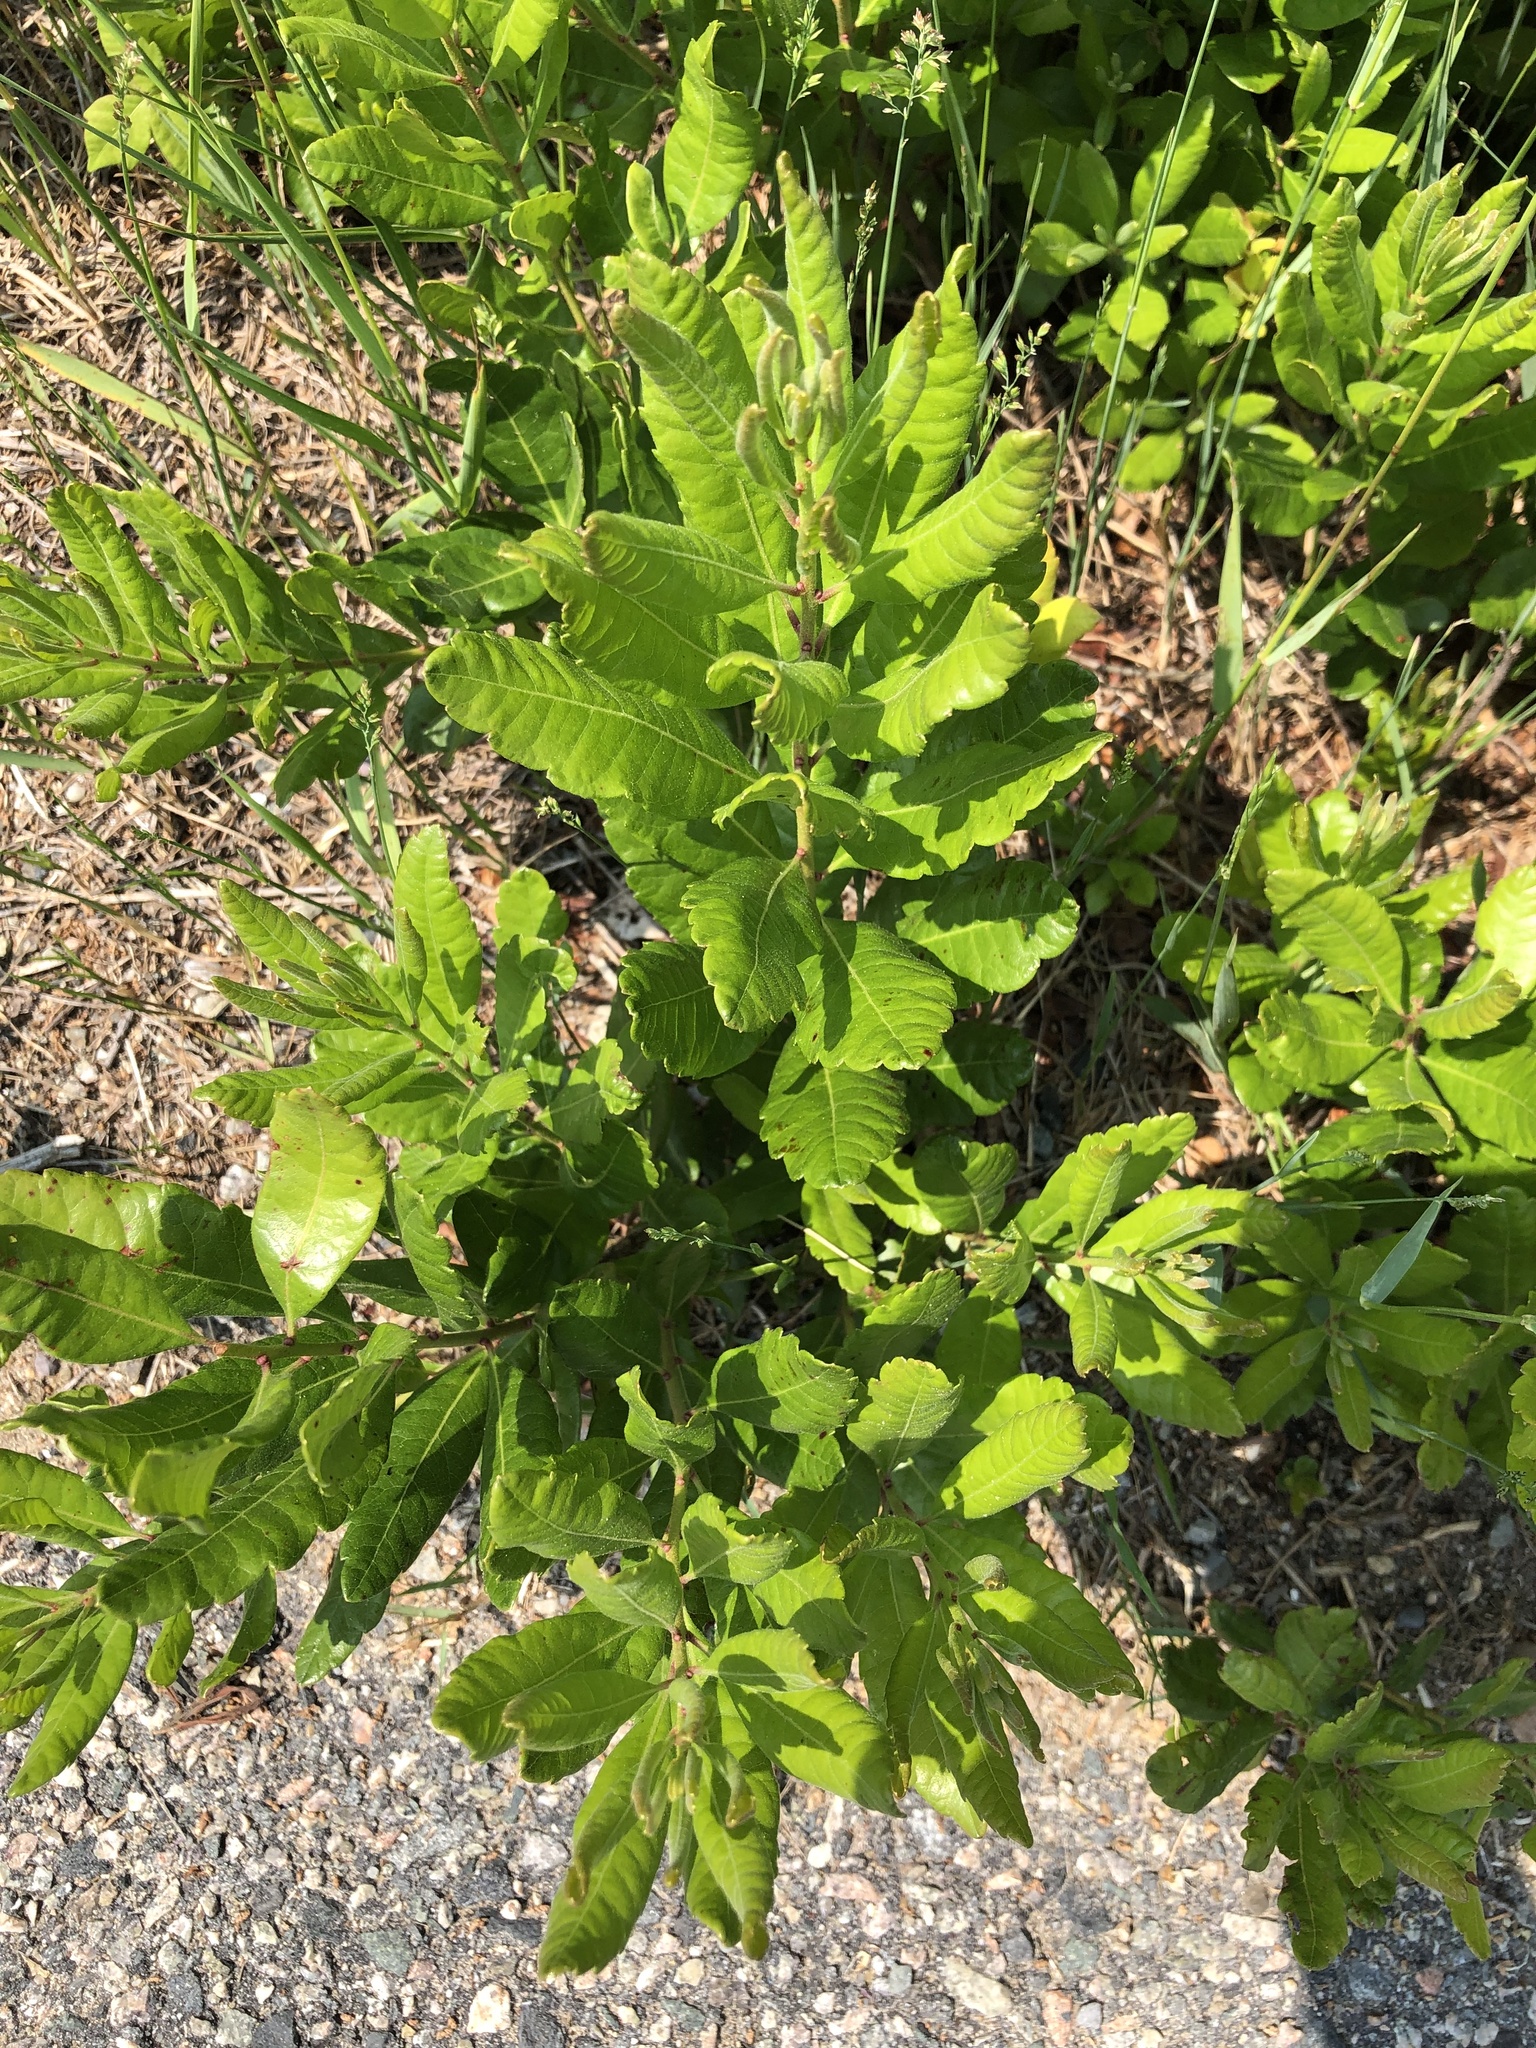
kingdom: Plantae
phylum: Tracheophyta
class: Magnoliopsida
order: Fagales
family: Myricaceae
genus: Morella
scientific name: Morella pensylvanica
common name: Northern bayberry
